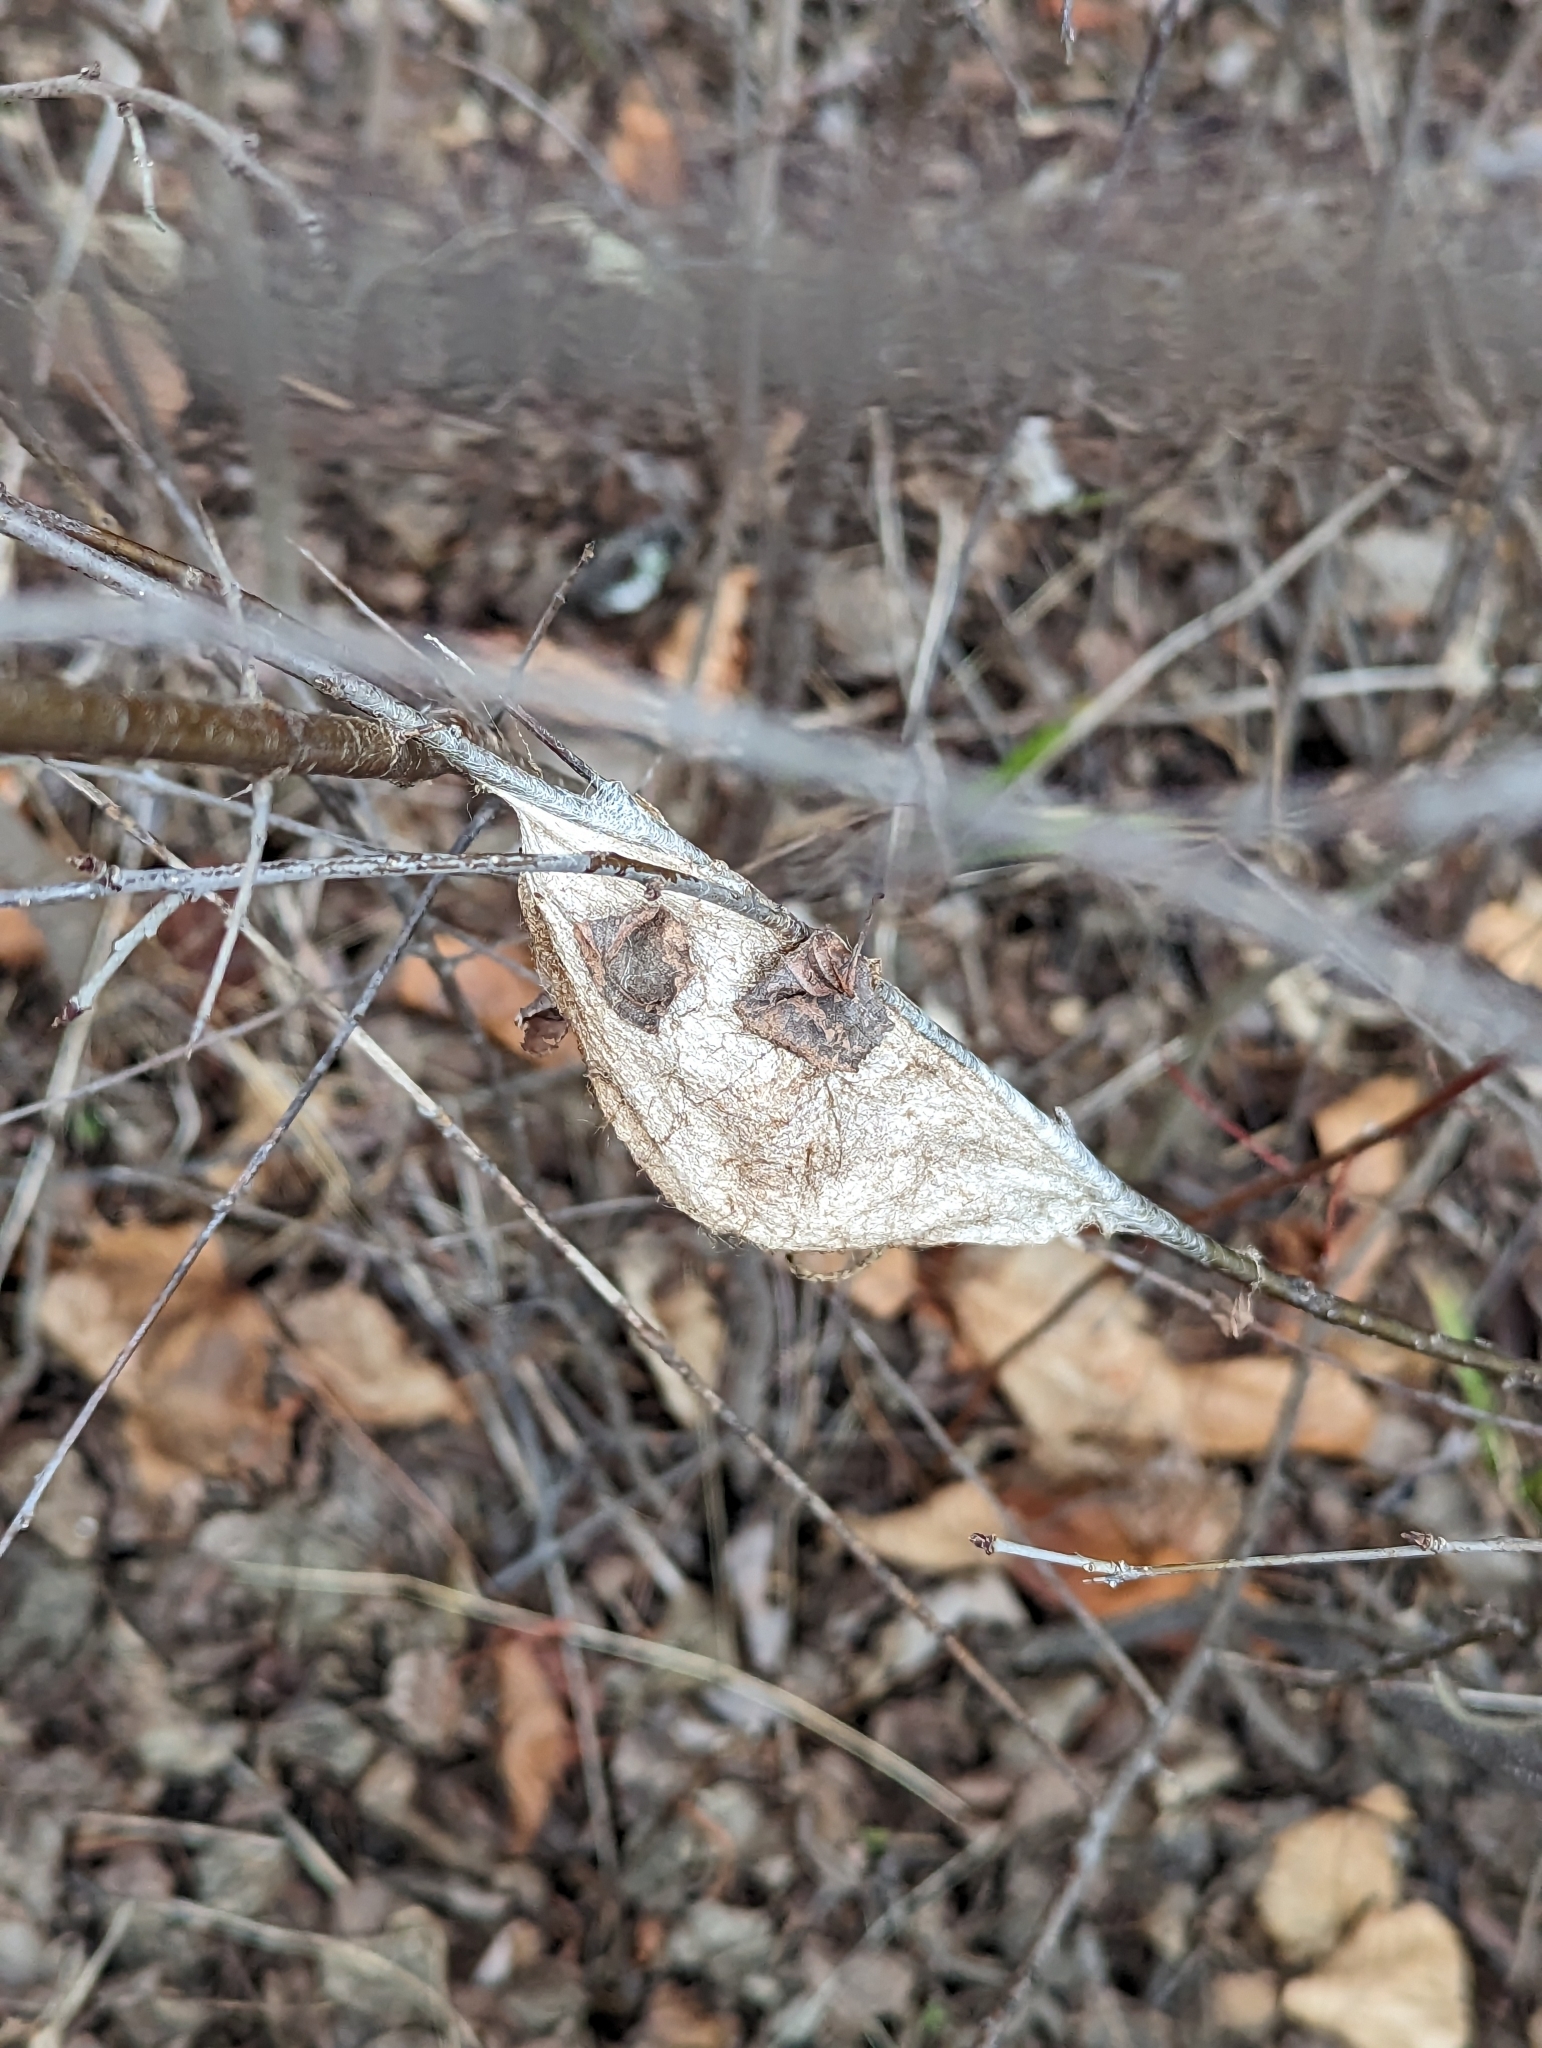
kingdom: Animalia
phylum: Arthropoda
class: Insecta
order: Lepidoptera
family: Saturniidae
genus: Hyalophora
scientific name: Hyalophora cecropia
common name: Cecropia silkmoth
